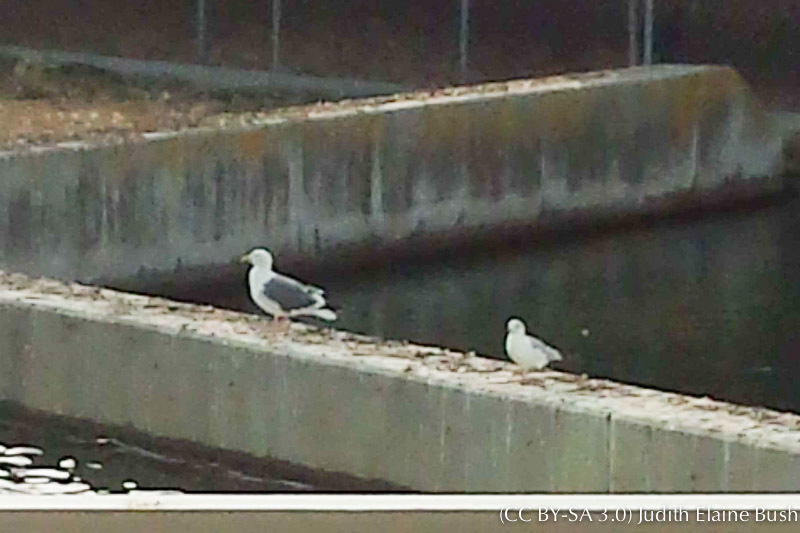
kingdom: Animalia
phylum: Chordata
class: Aves
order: Charadriiformes
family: Laridae
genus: Larus
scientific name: Larus delawarensis
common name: Ring-billed gull
